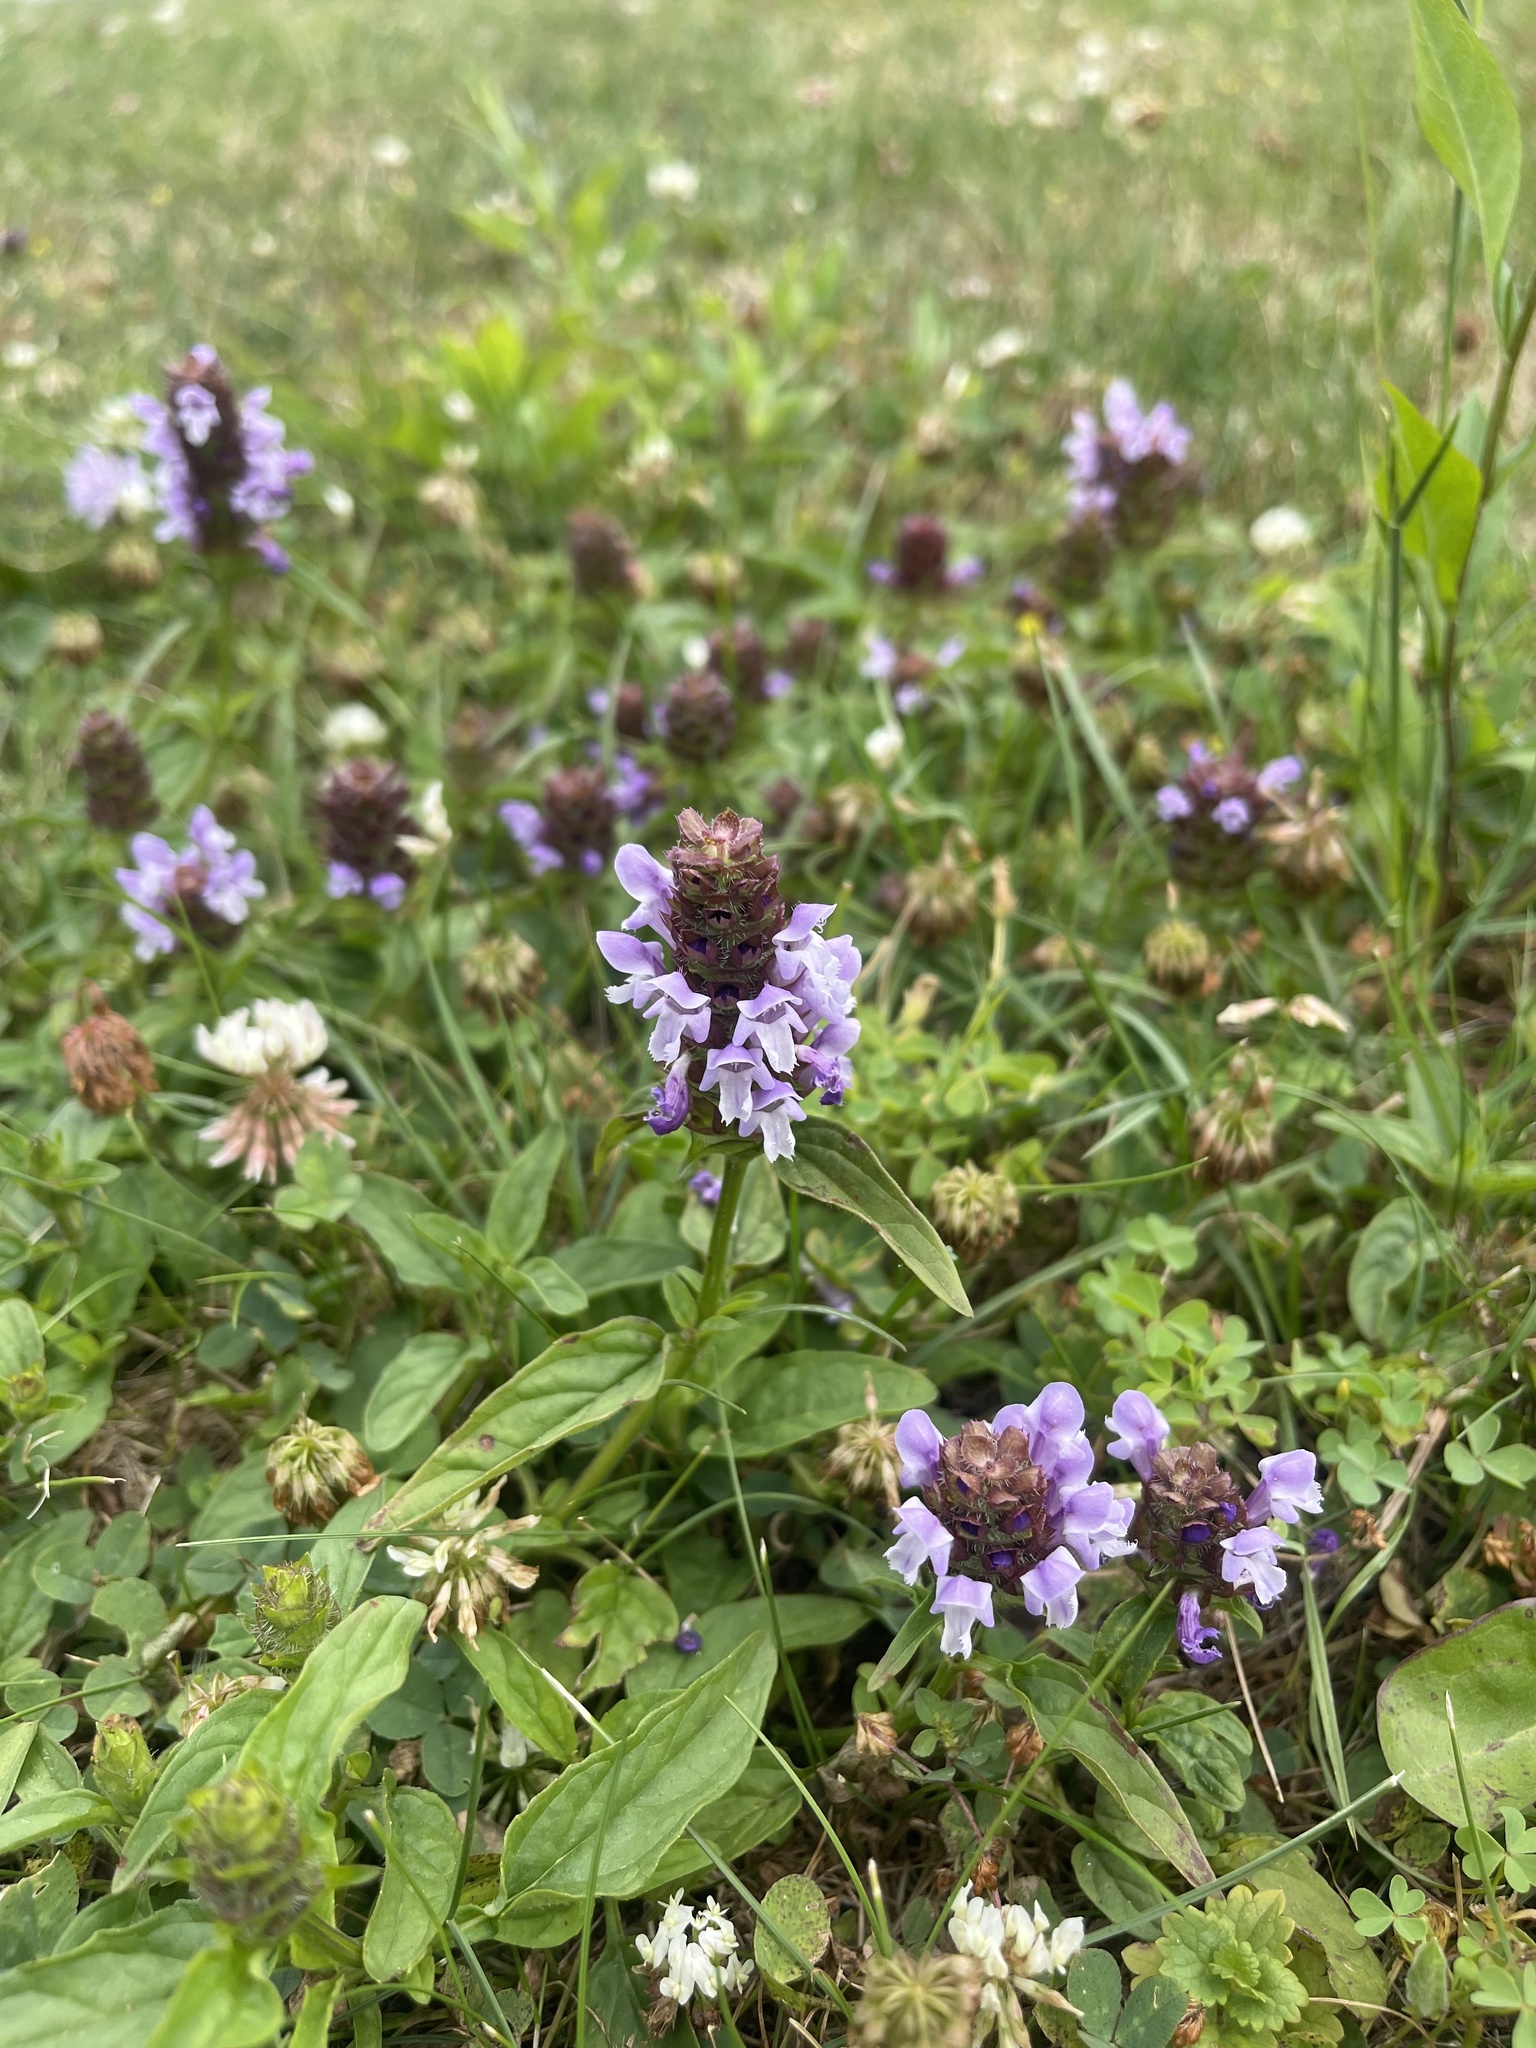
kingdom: Plantae
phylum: Tracheophyta
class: Magnoliopsida
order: Lamiales
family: Lamiaceae
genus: Prunella
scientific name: Prunella vulgaris
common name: Heal-all
